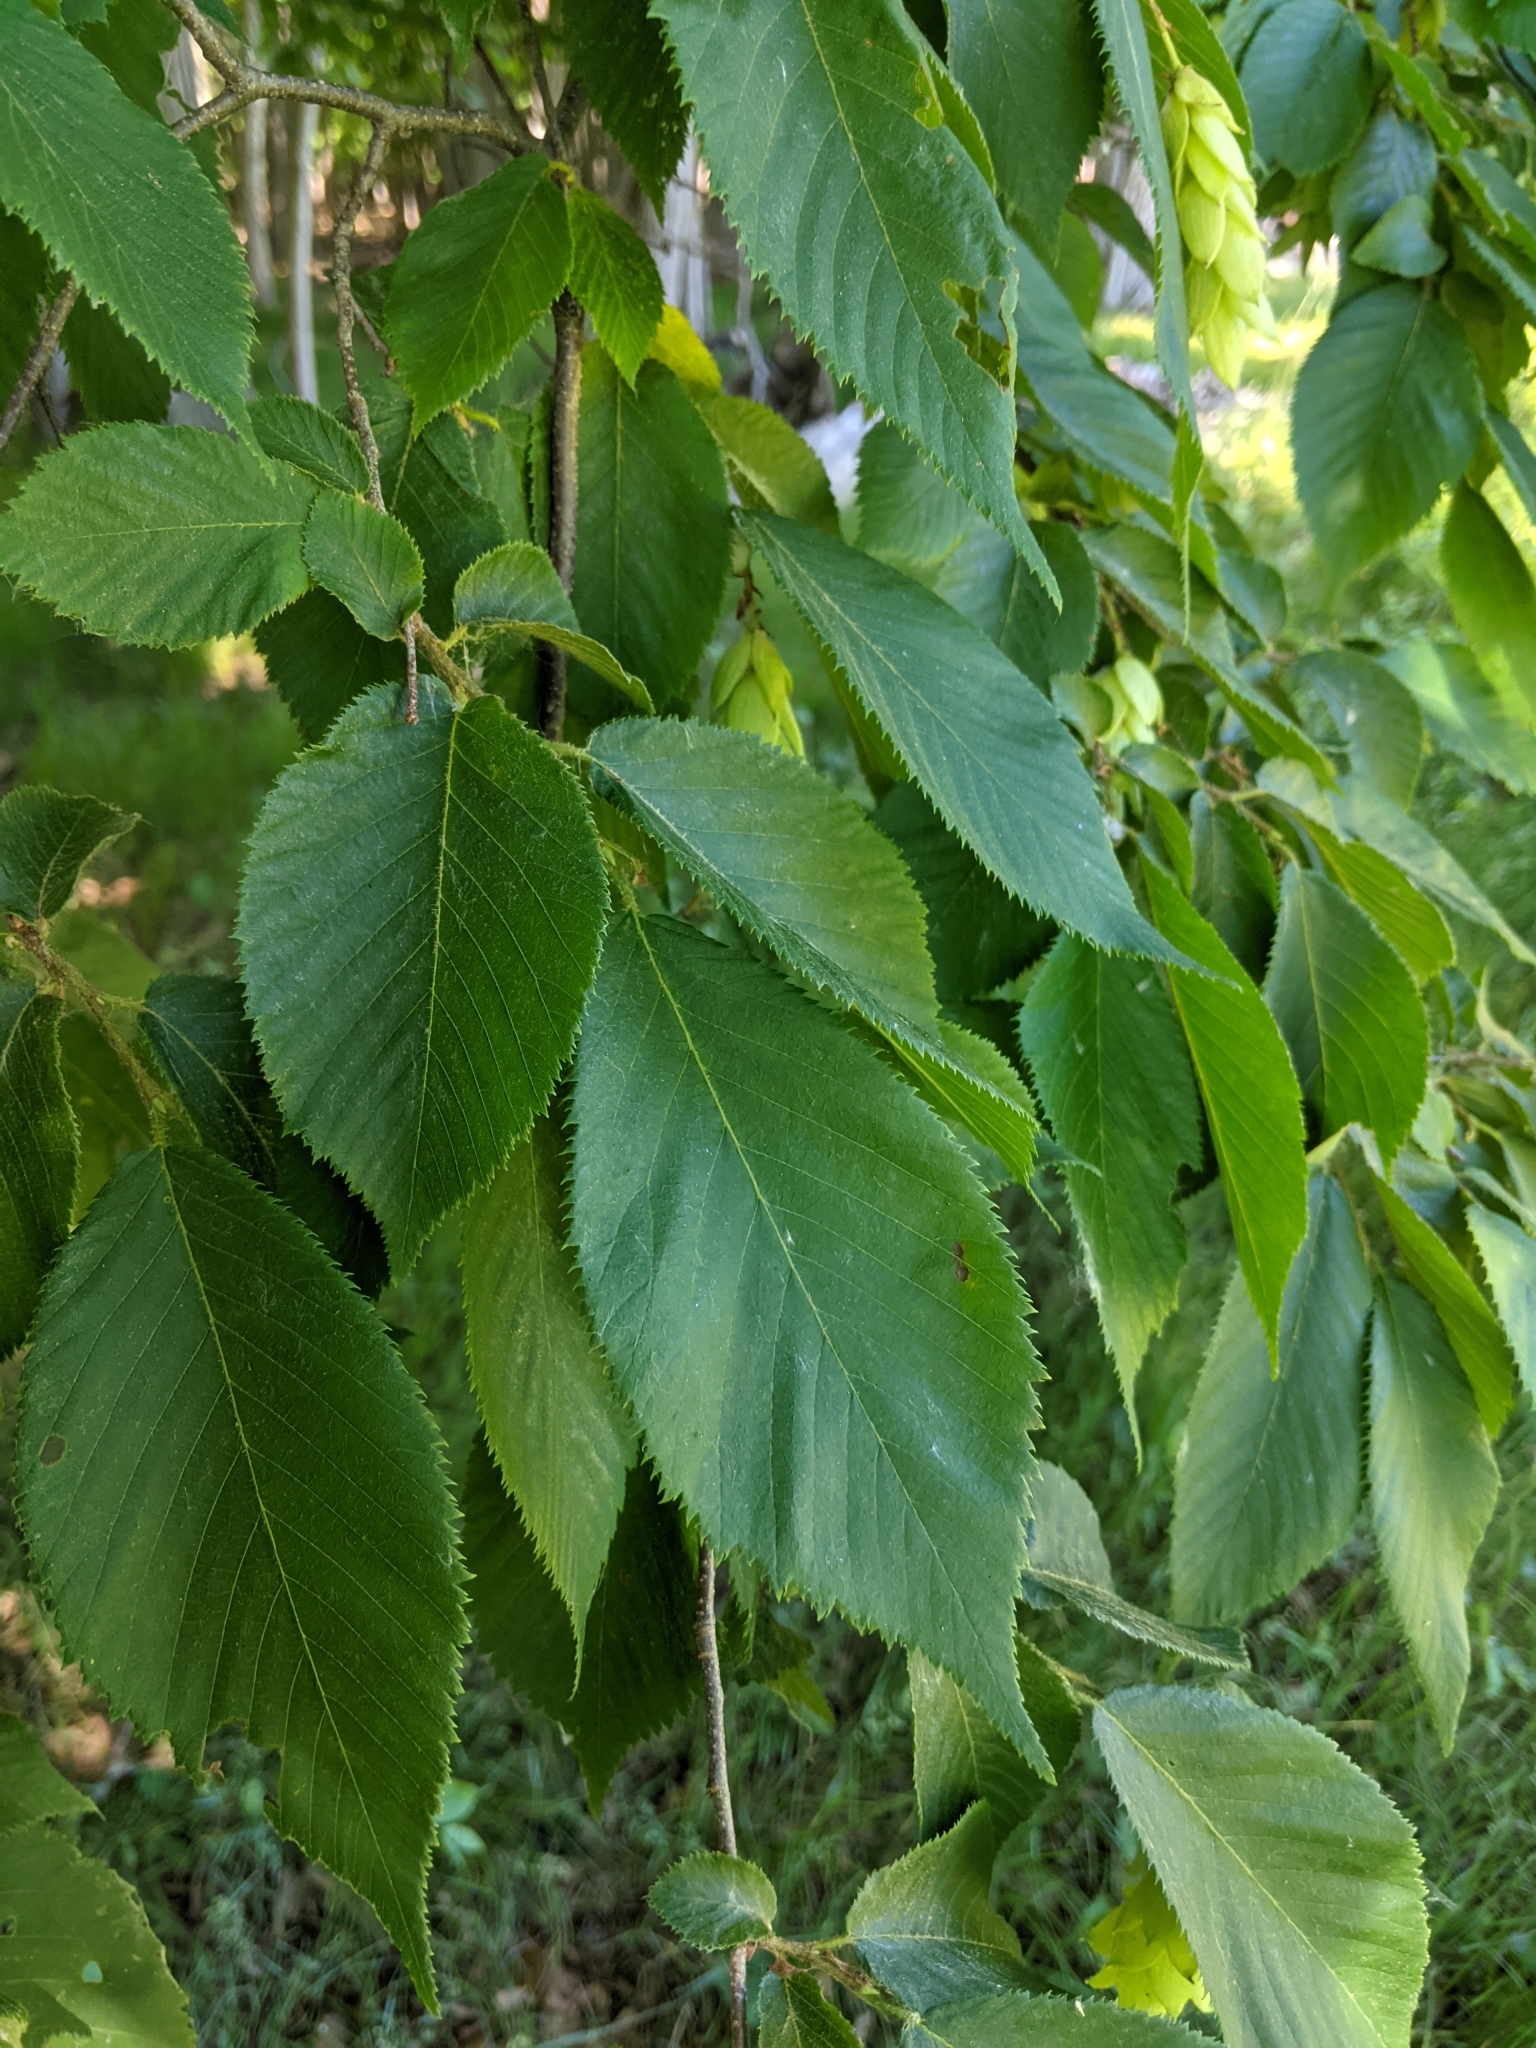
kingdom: Plantae
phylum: Tracheophyta
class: Magnoliopsida
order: Fagales
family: Betulaceae
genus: Ostrya
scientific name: Ostrya virginiana
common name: Ironwood
